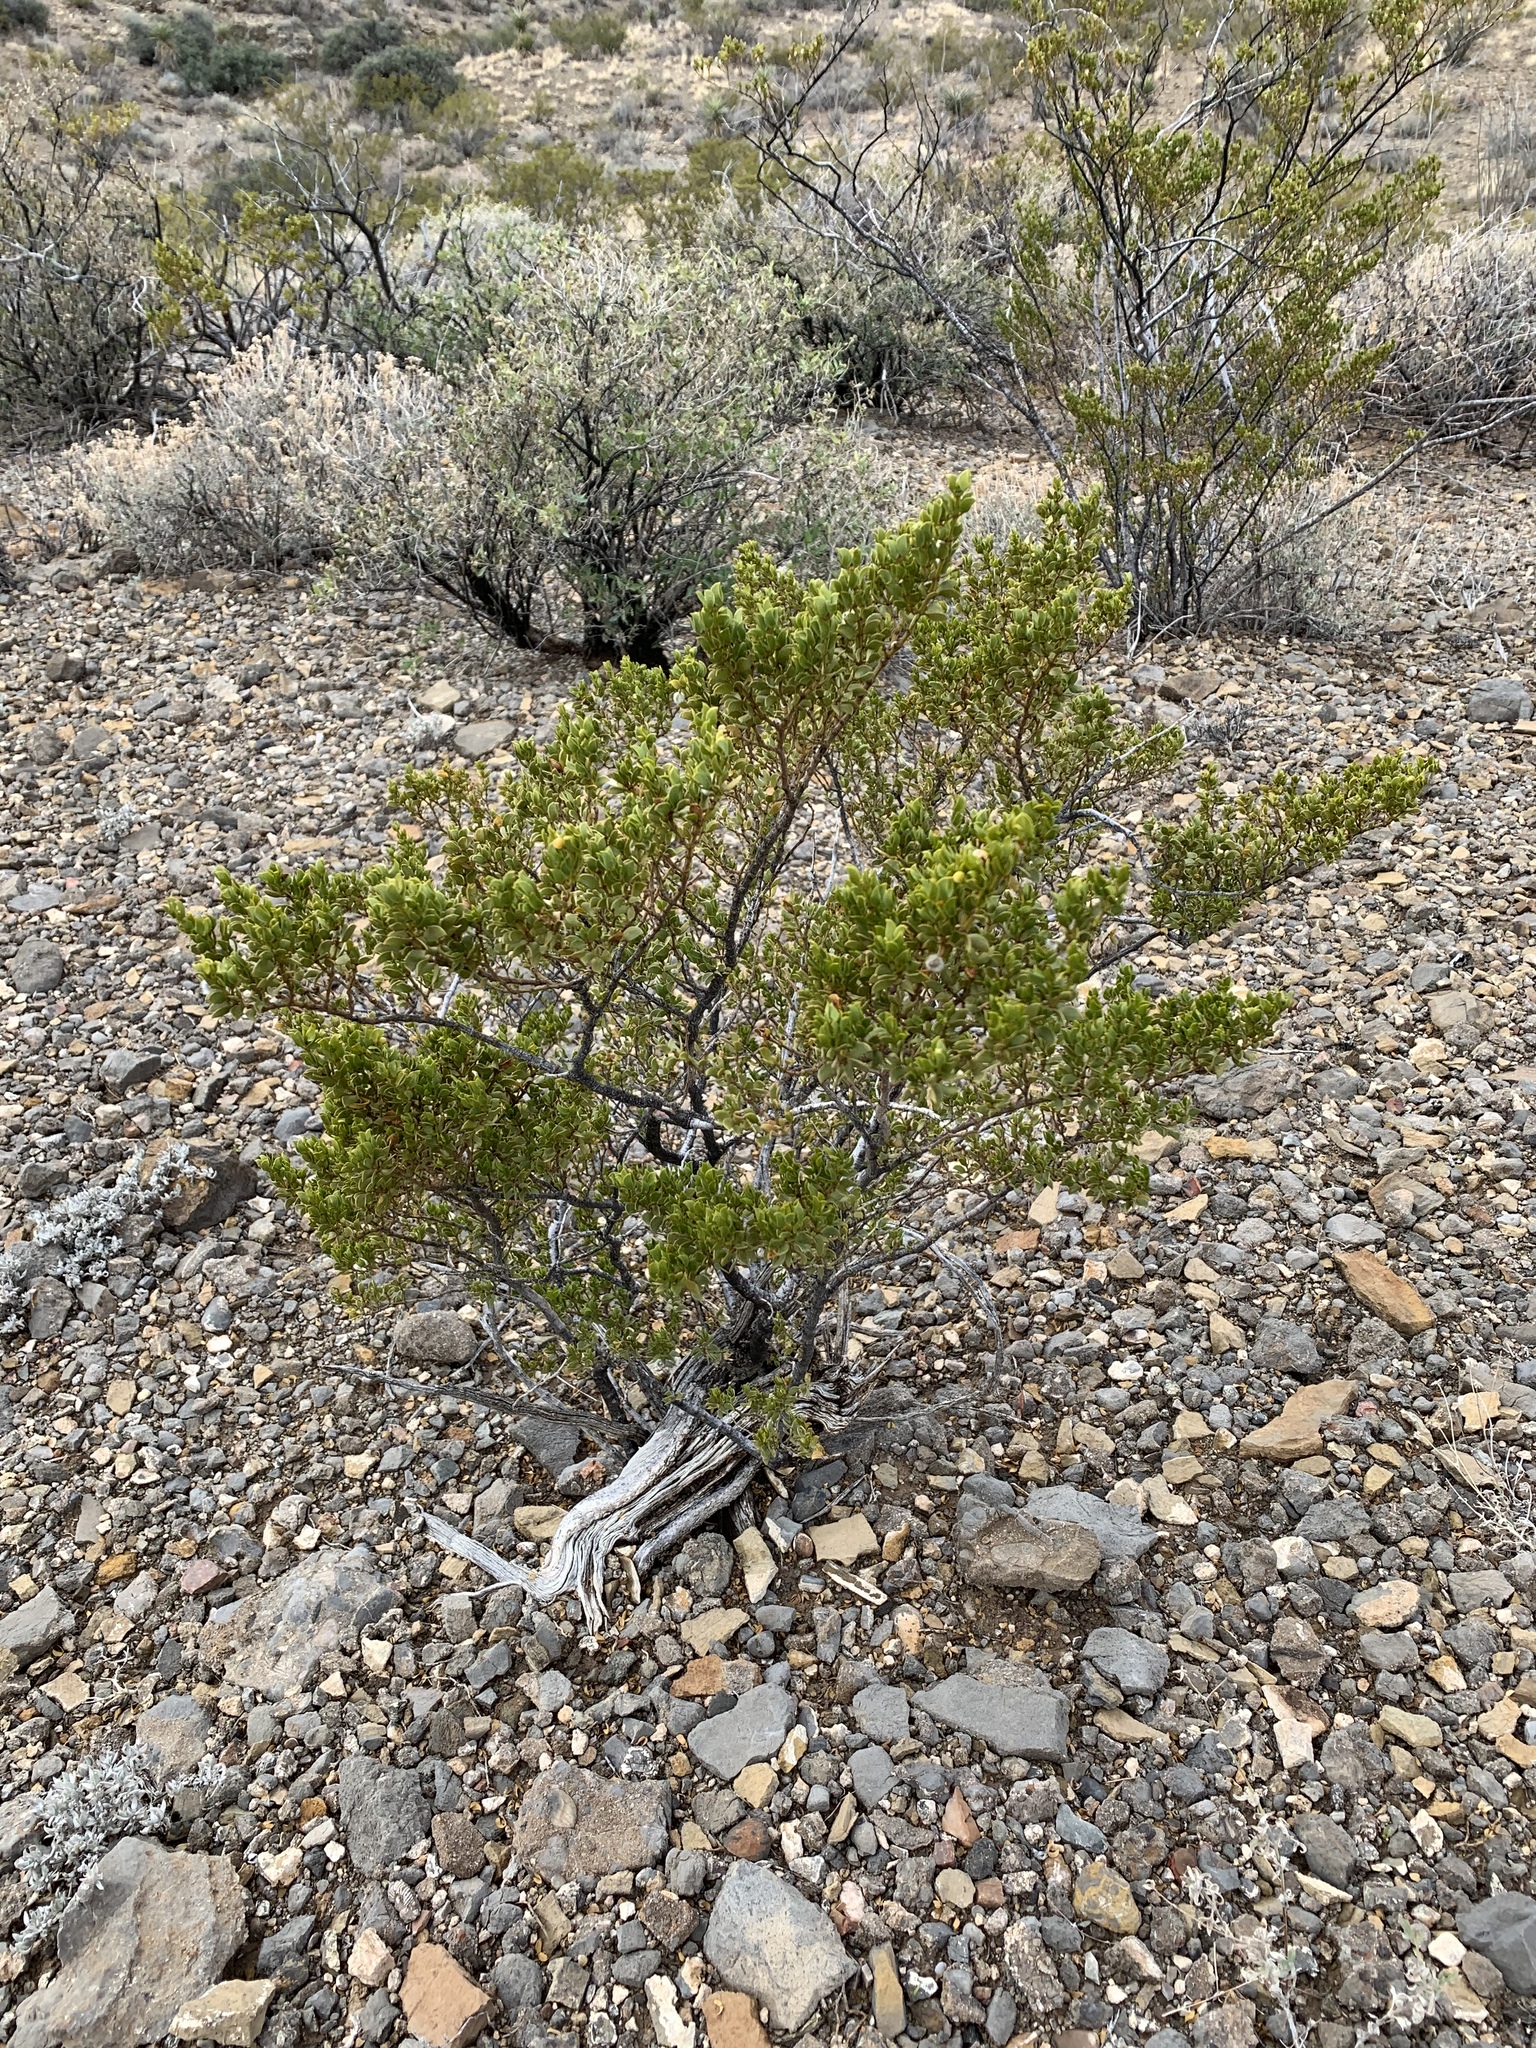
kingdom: Plantae
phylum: Tracheophyta
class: Magnoliopsida
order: Zygophyllales
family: Zygophyllaceae
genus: Larrea
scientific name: Larrea tridentata
